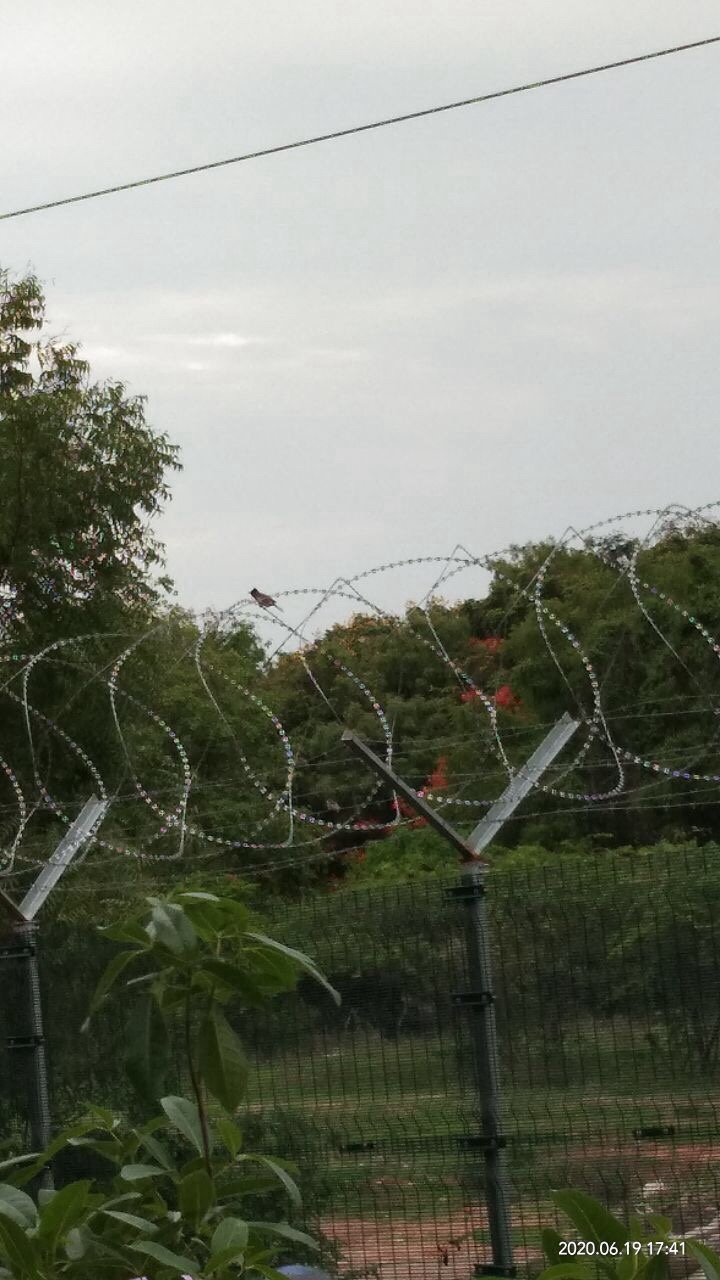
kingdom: Animalia
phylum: Chordata
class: Aves
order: Passeriformes
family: Pycnonotidae
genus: Pycnonotus
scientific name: Pycnonotus cafer
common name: Red-vented bulbul
